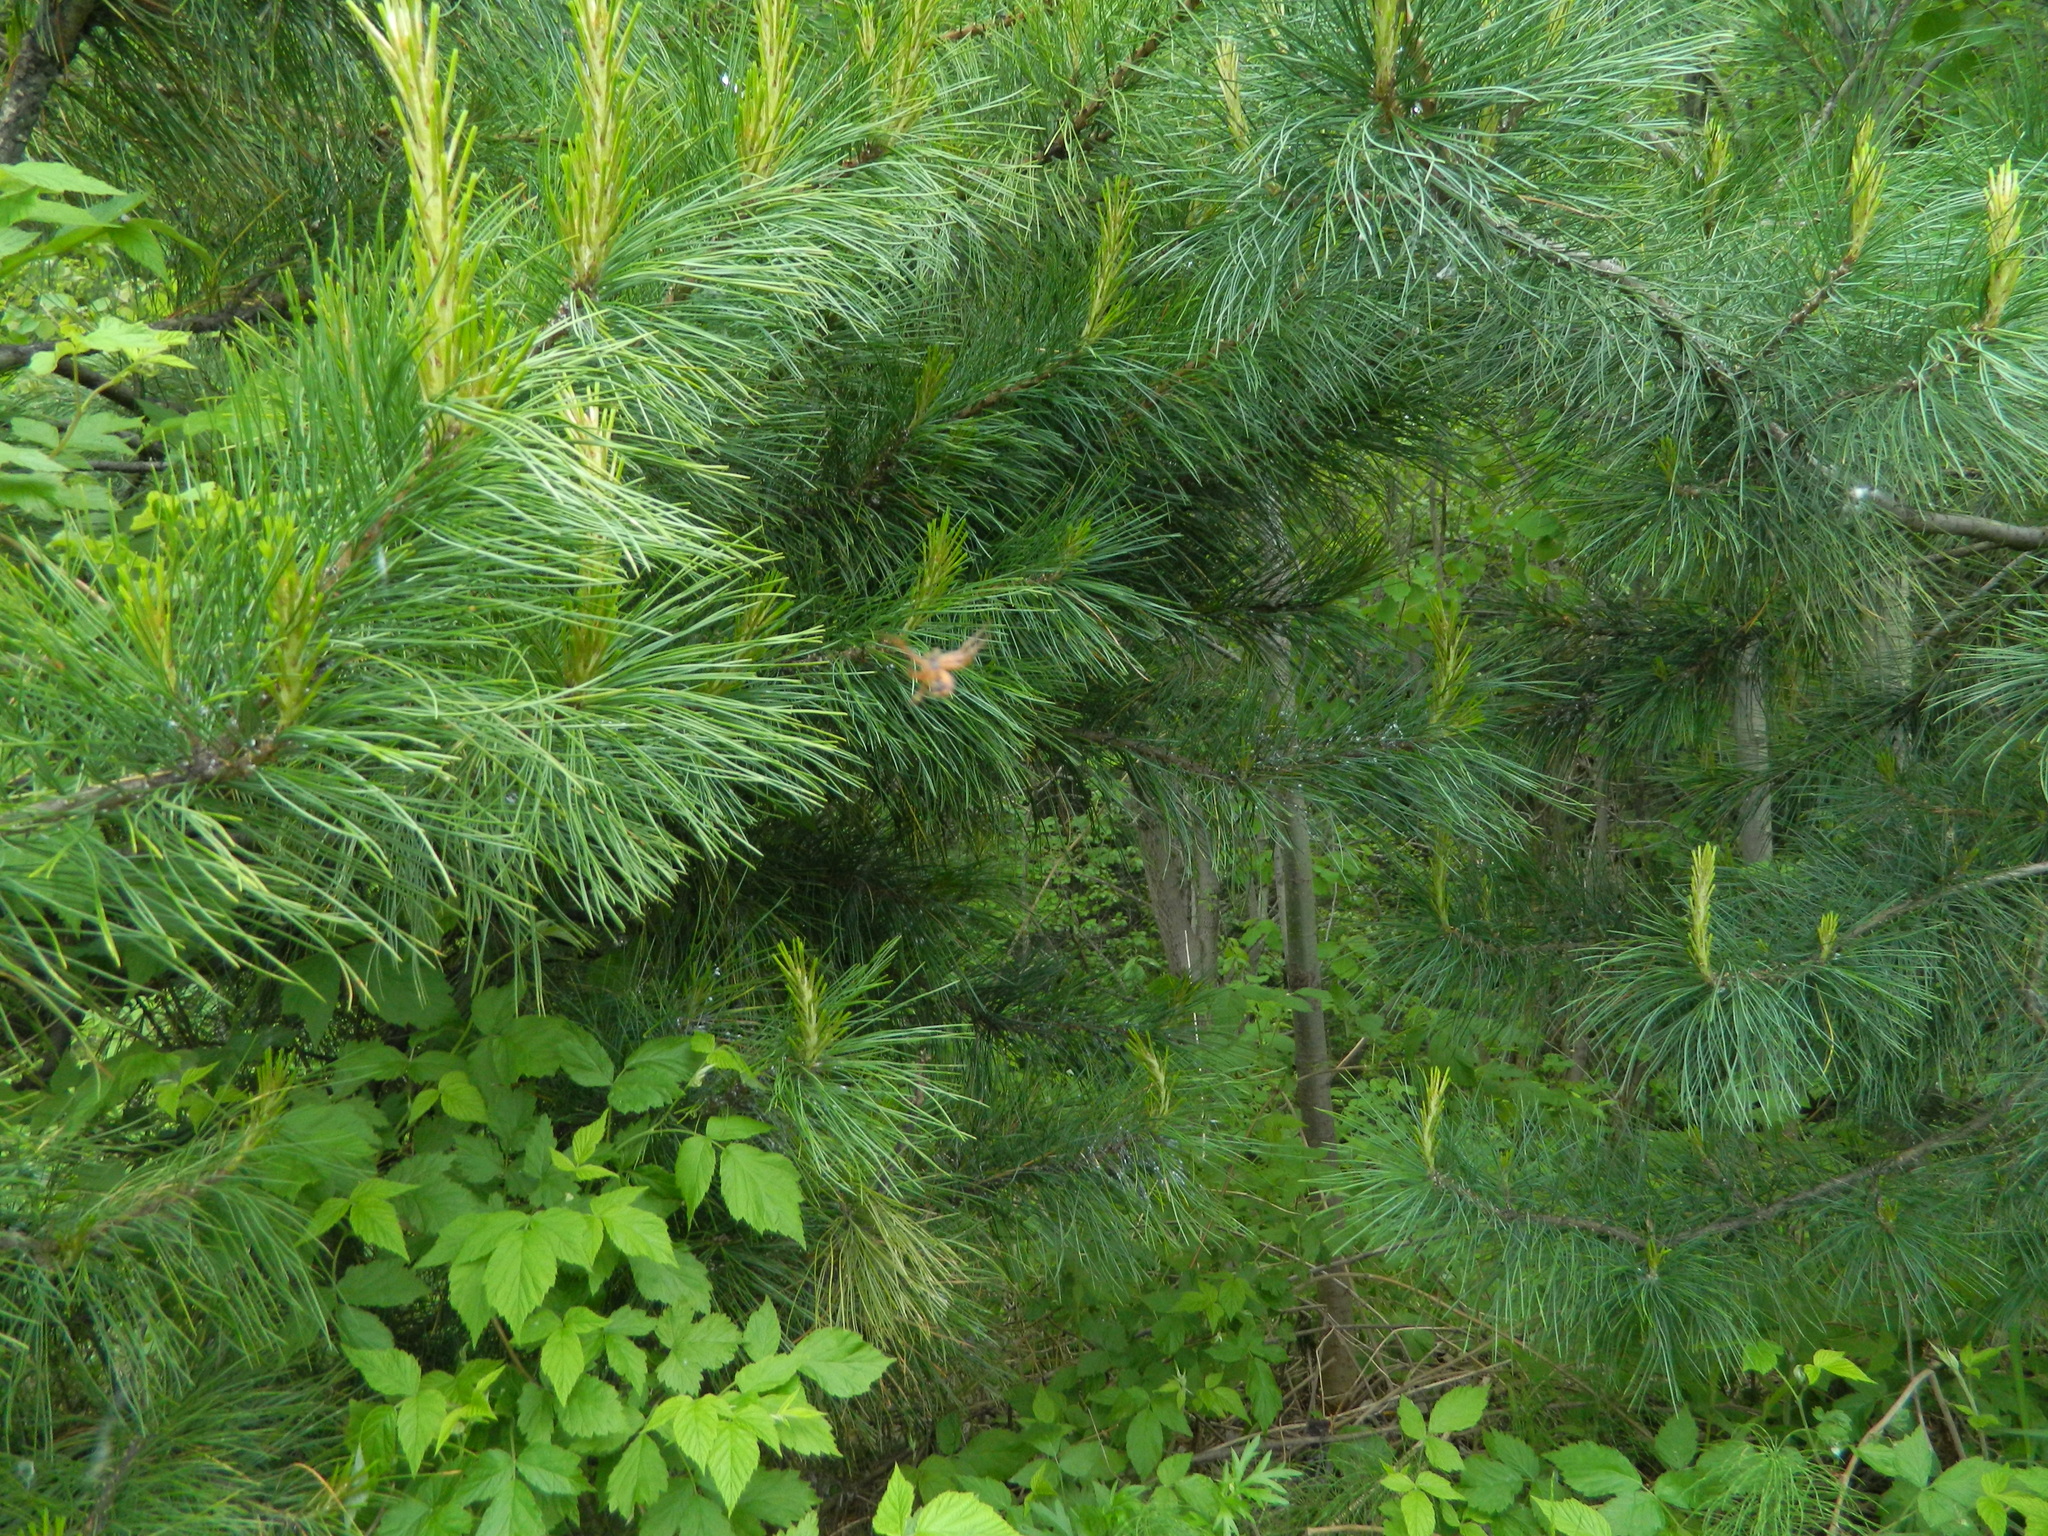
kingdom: Plantae
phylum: Tracheophyta
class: Pinopsida
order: Pinales
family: Pinaceae
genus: Pinus
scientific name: Pinus sibirica
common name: Siberian pine
